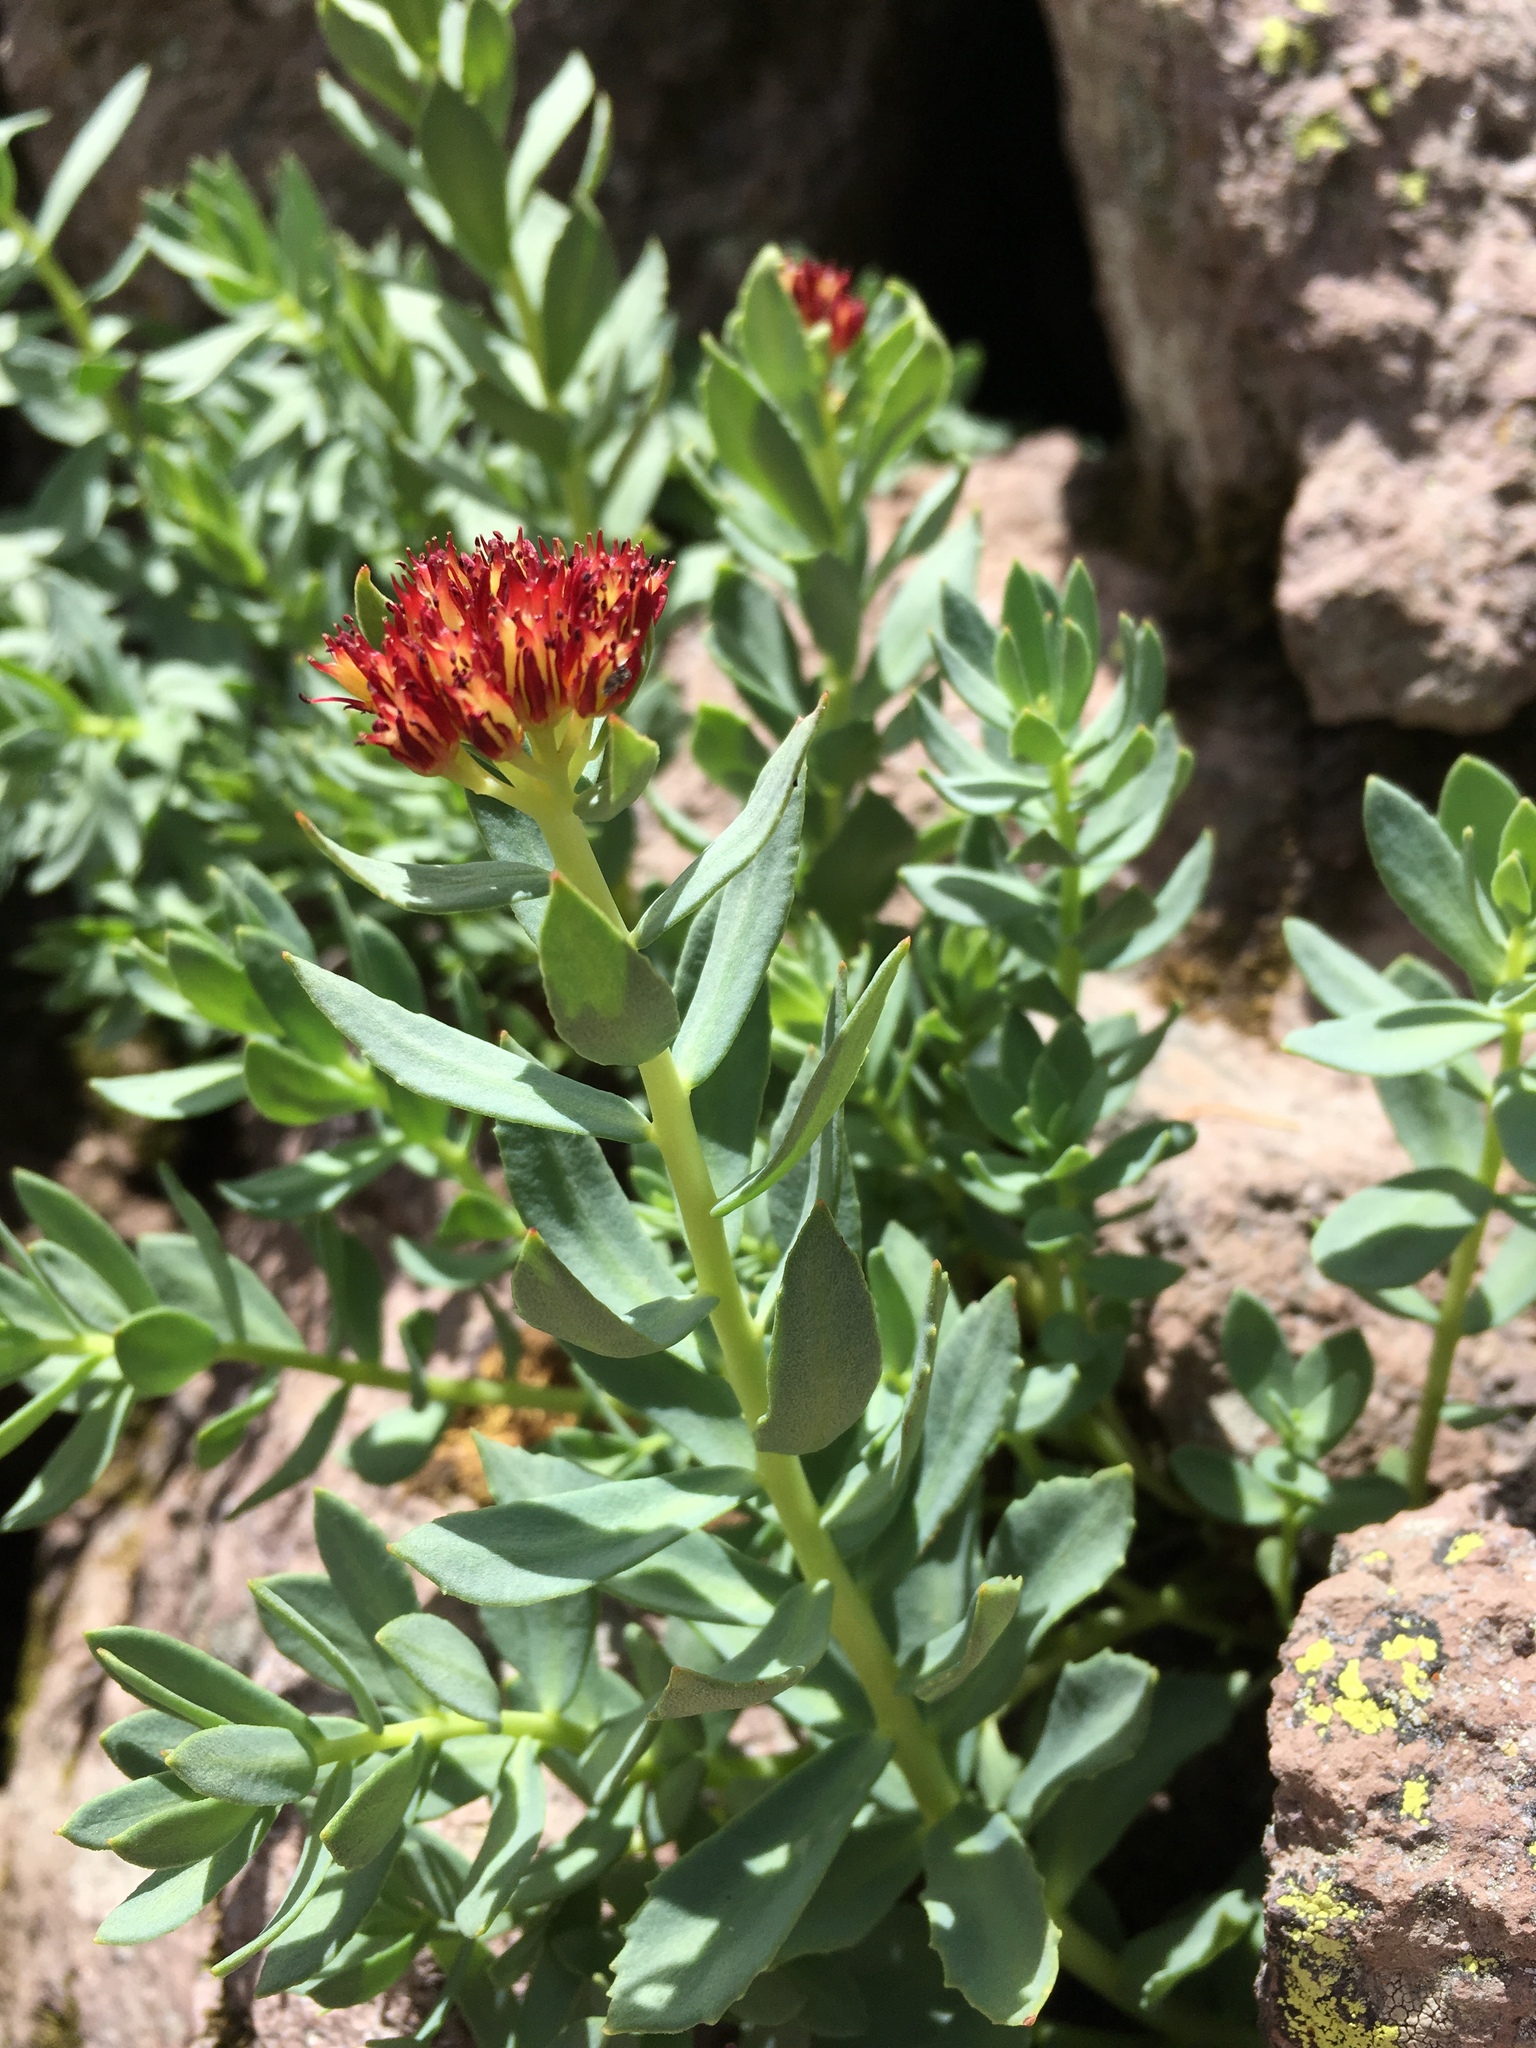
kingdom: Plantae
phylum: Tracheophyta
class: Magnoliopsida
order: Saxifragales
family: Crassulaceae
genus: Rhodiola
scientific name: Rhodiola integrifolia
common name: Western roseroot
